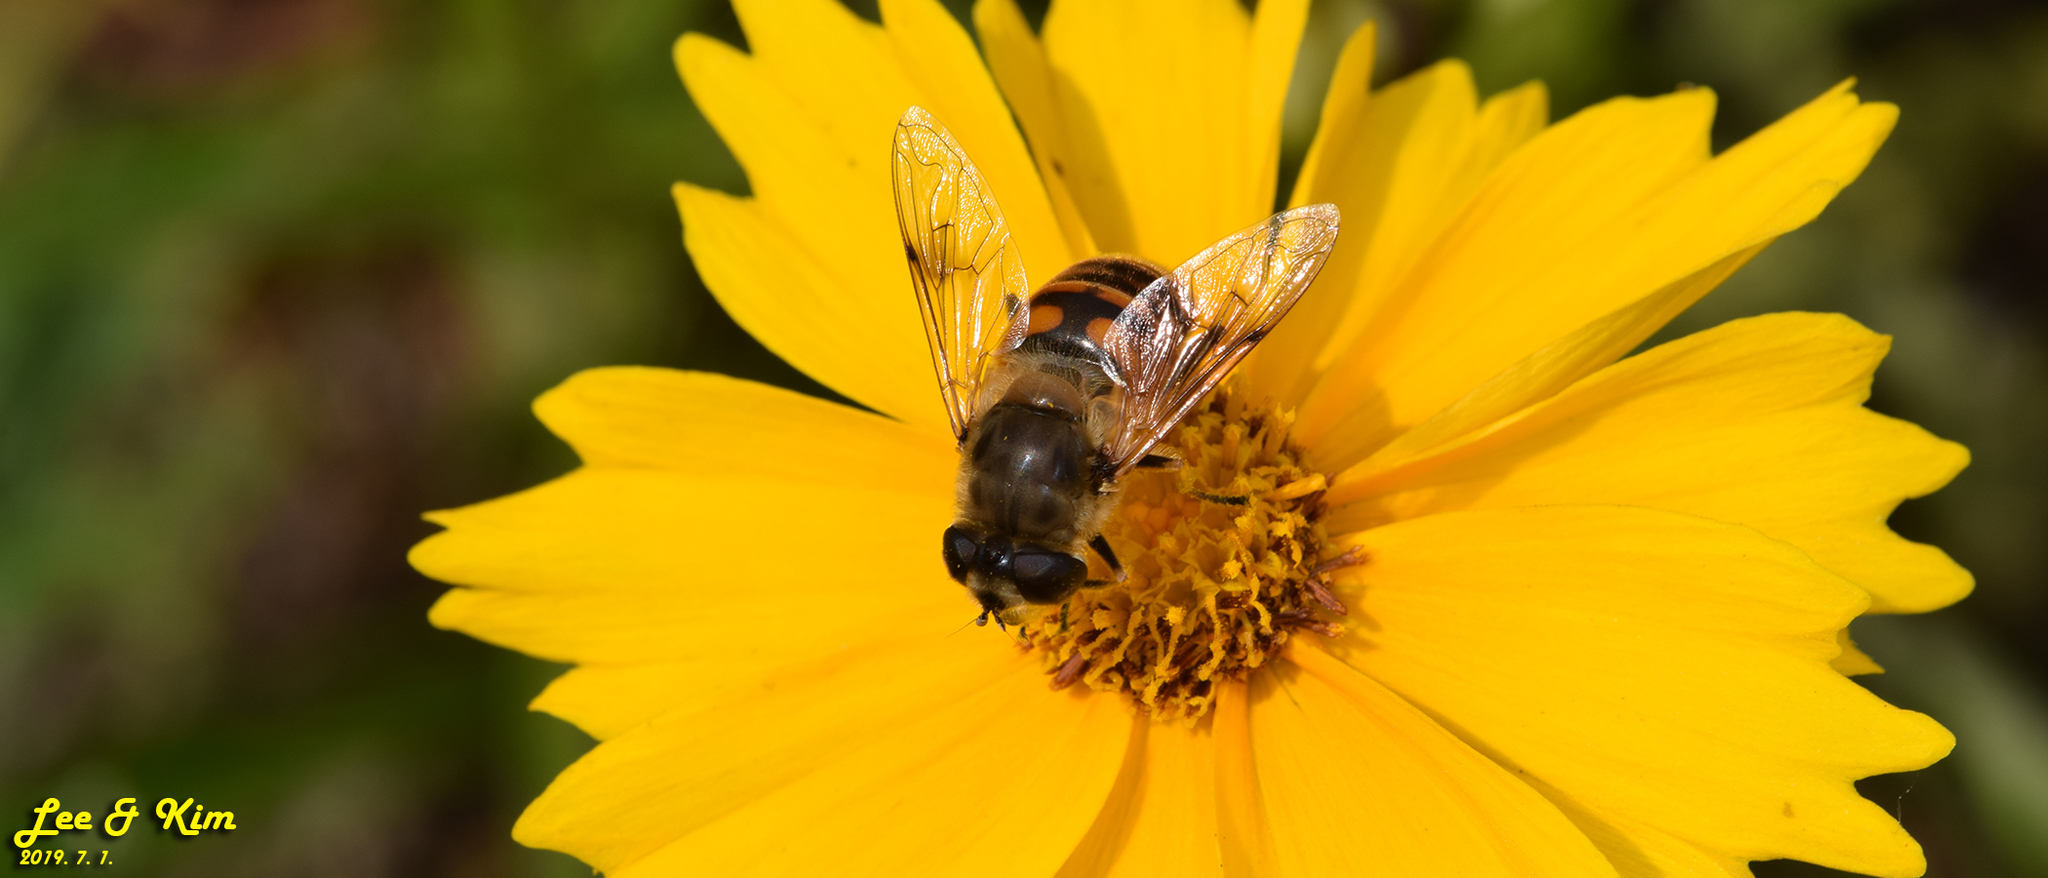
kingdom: Animalia
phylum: Arthropoda
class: Insecta
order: Diptera
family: Syrphidae
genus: Eristalis
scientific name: Eristalis tenax
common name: Drone fly
